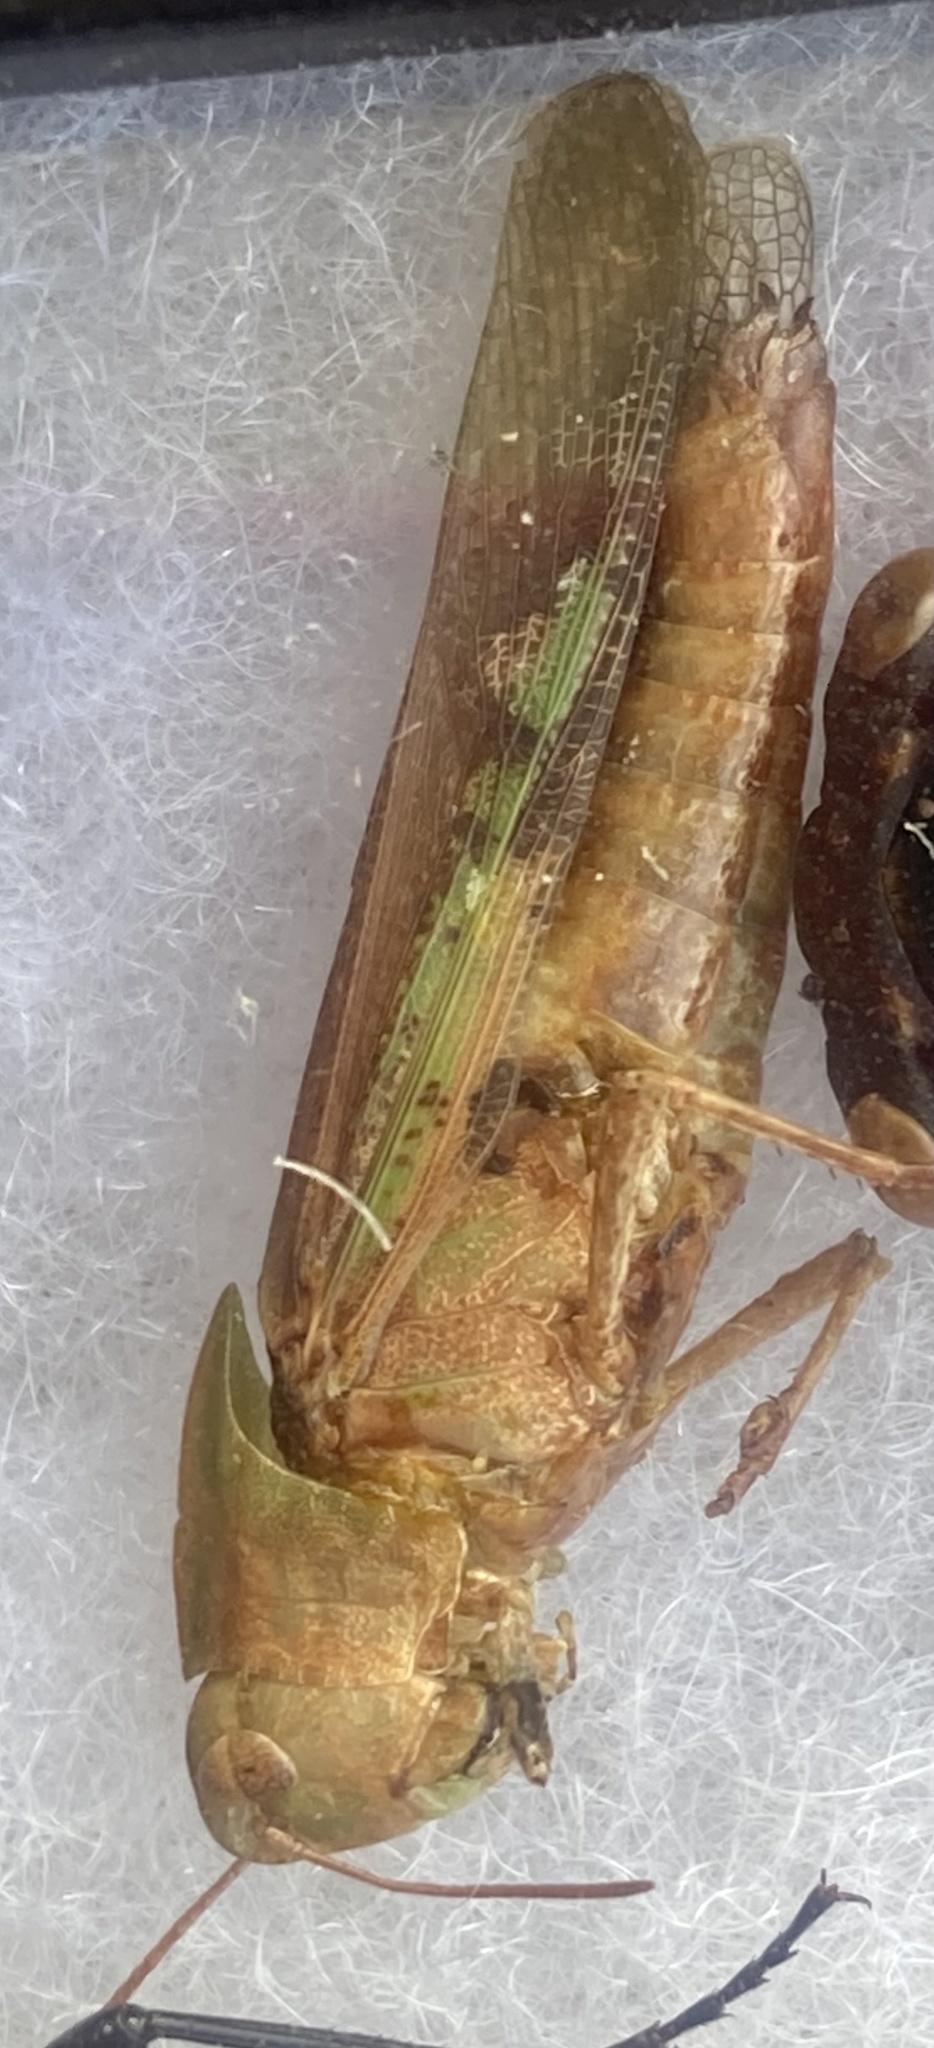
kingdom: Animalia
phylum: Arthropoda
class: Insecta
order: Orthoptera
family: Acrididae
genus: Chortophaga
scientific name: Chortophaga viridifasciata
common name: Green-striped grasshopper
